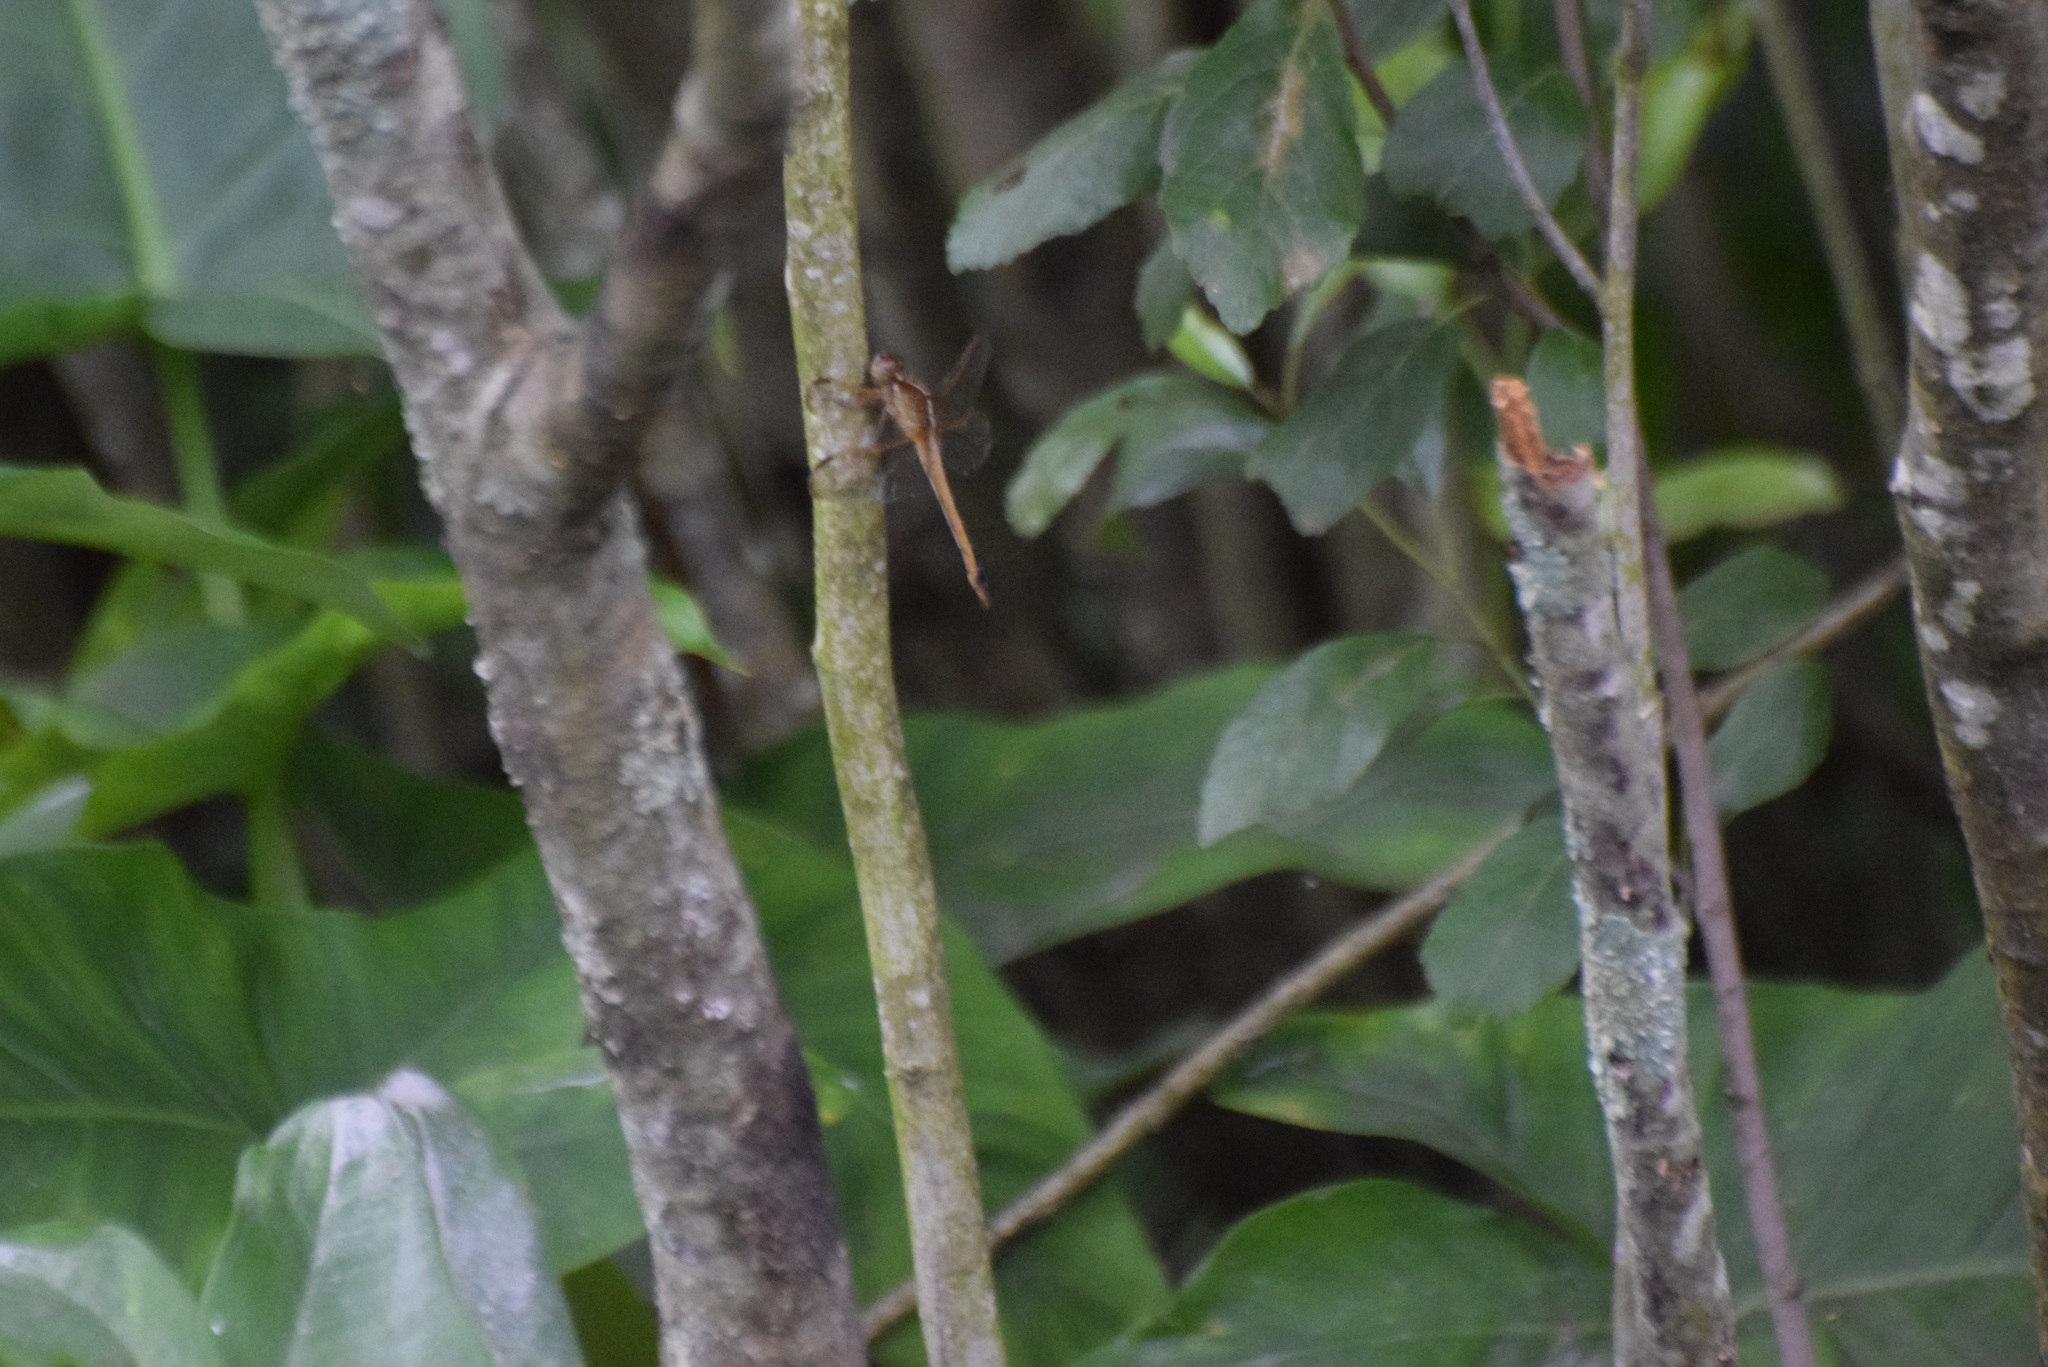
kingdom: Animalia
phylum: Arthropoda
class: Insecta
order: Odonata
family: Libellulidae
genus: Libellula
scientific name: Libellula needhami
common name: Needham's skimmer
